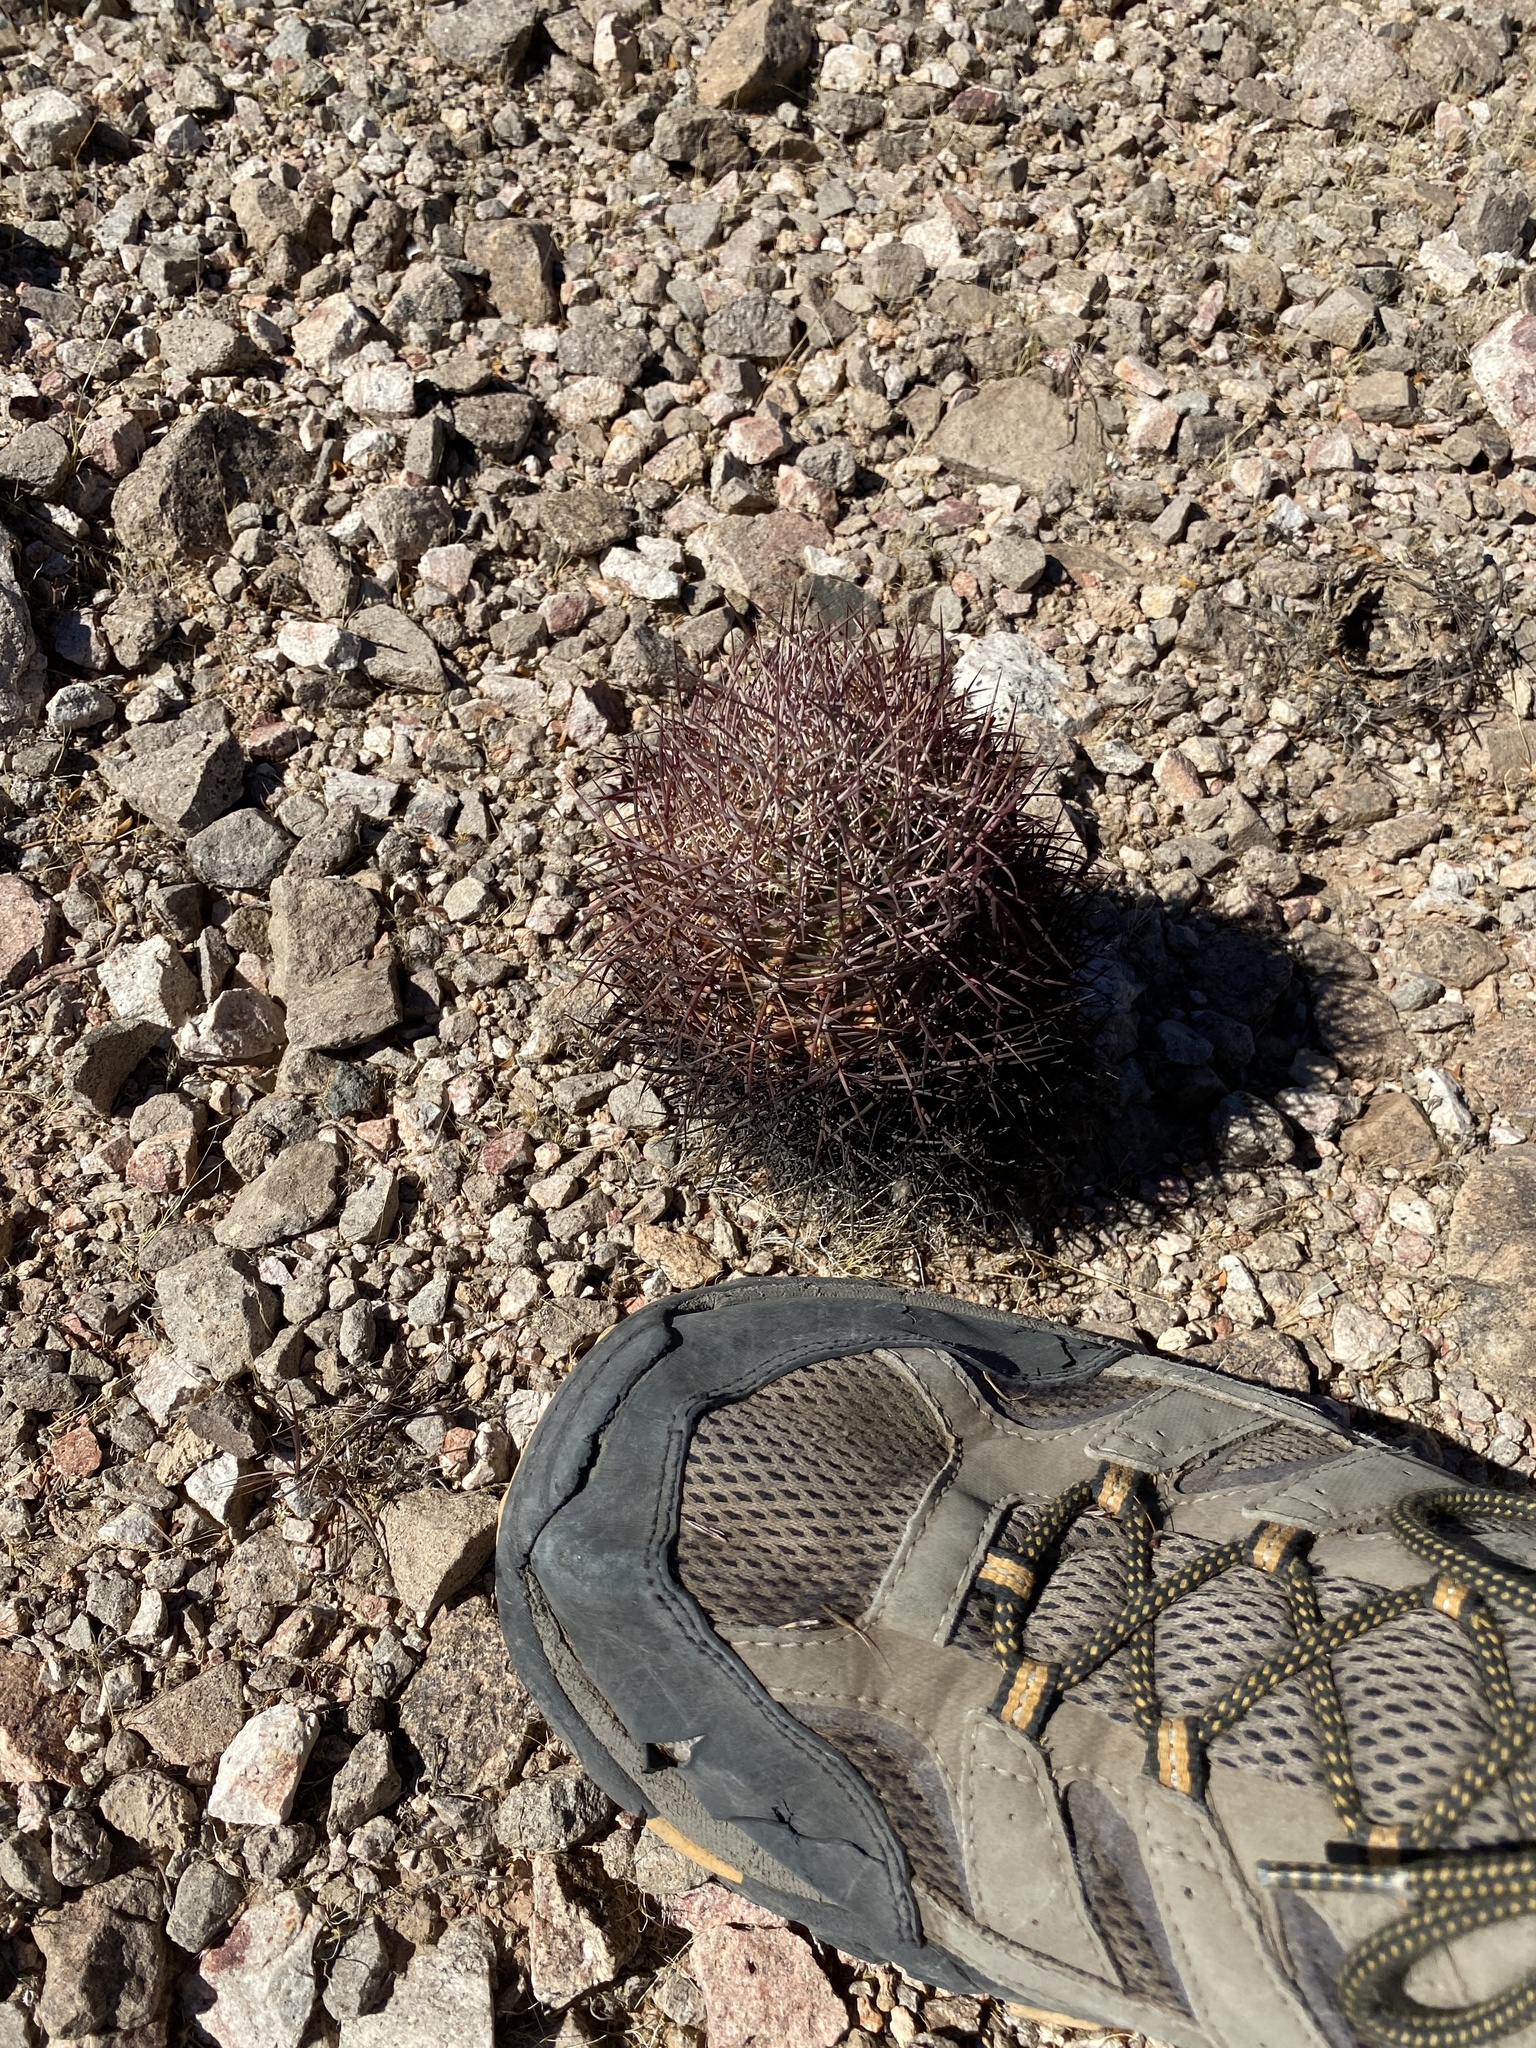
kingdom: Plantae
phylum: Tracheophyta
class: Magnoliopsida
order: Caryophyllales
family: Cactaceae
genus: Sclerocactus
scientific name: Sclerocactus johnsonii
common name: Eight-spine fishhook cactus
